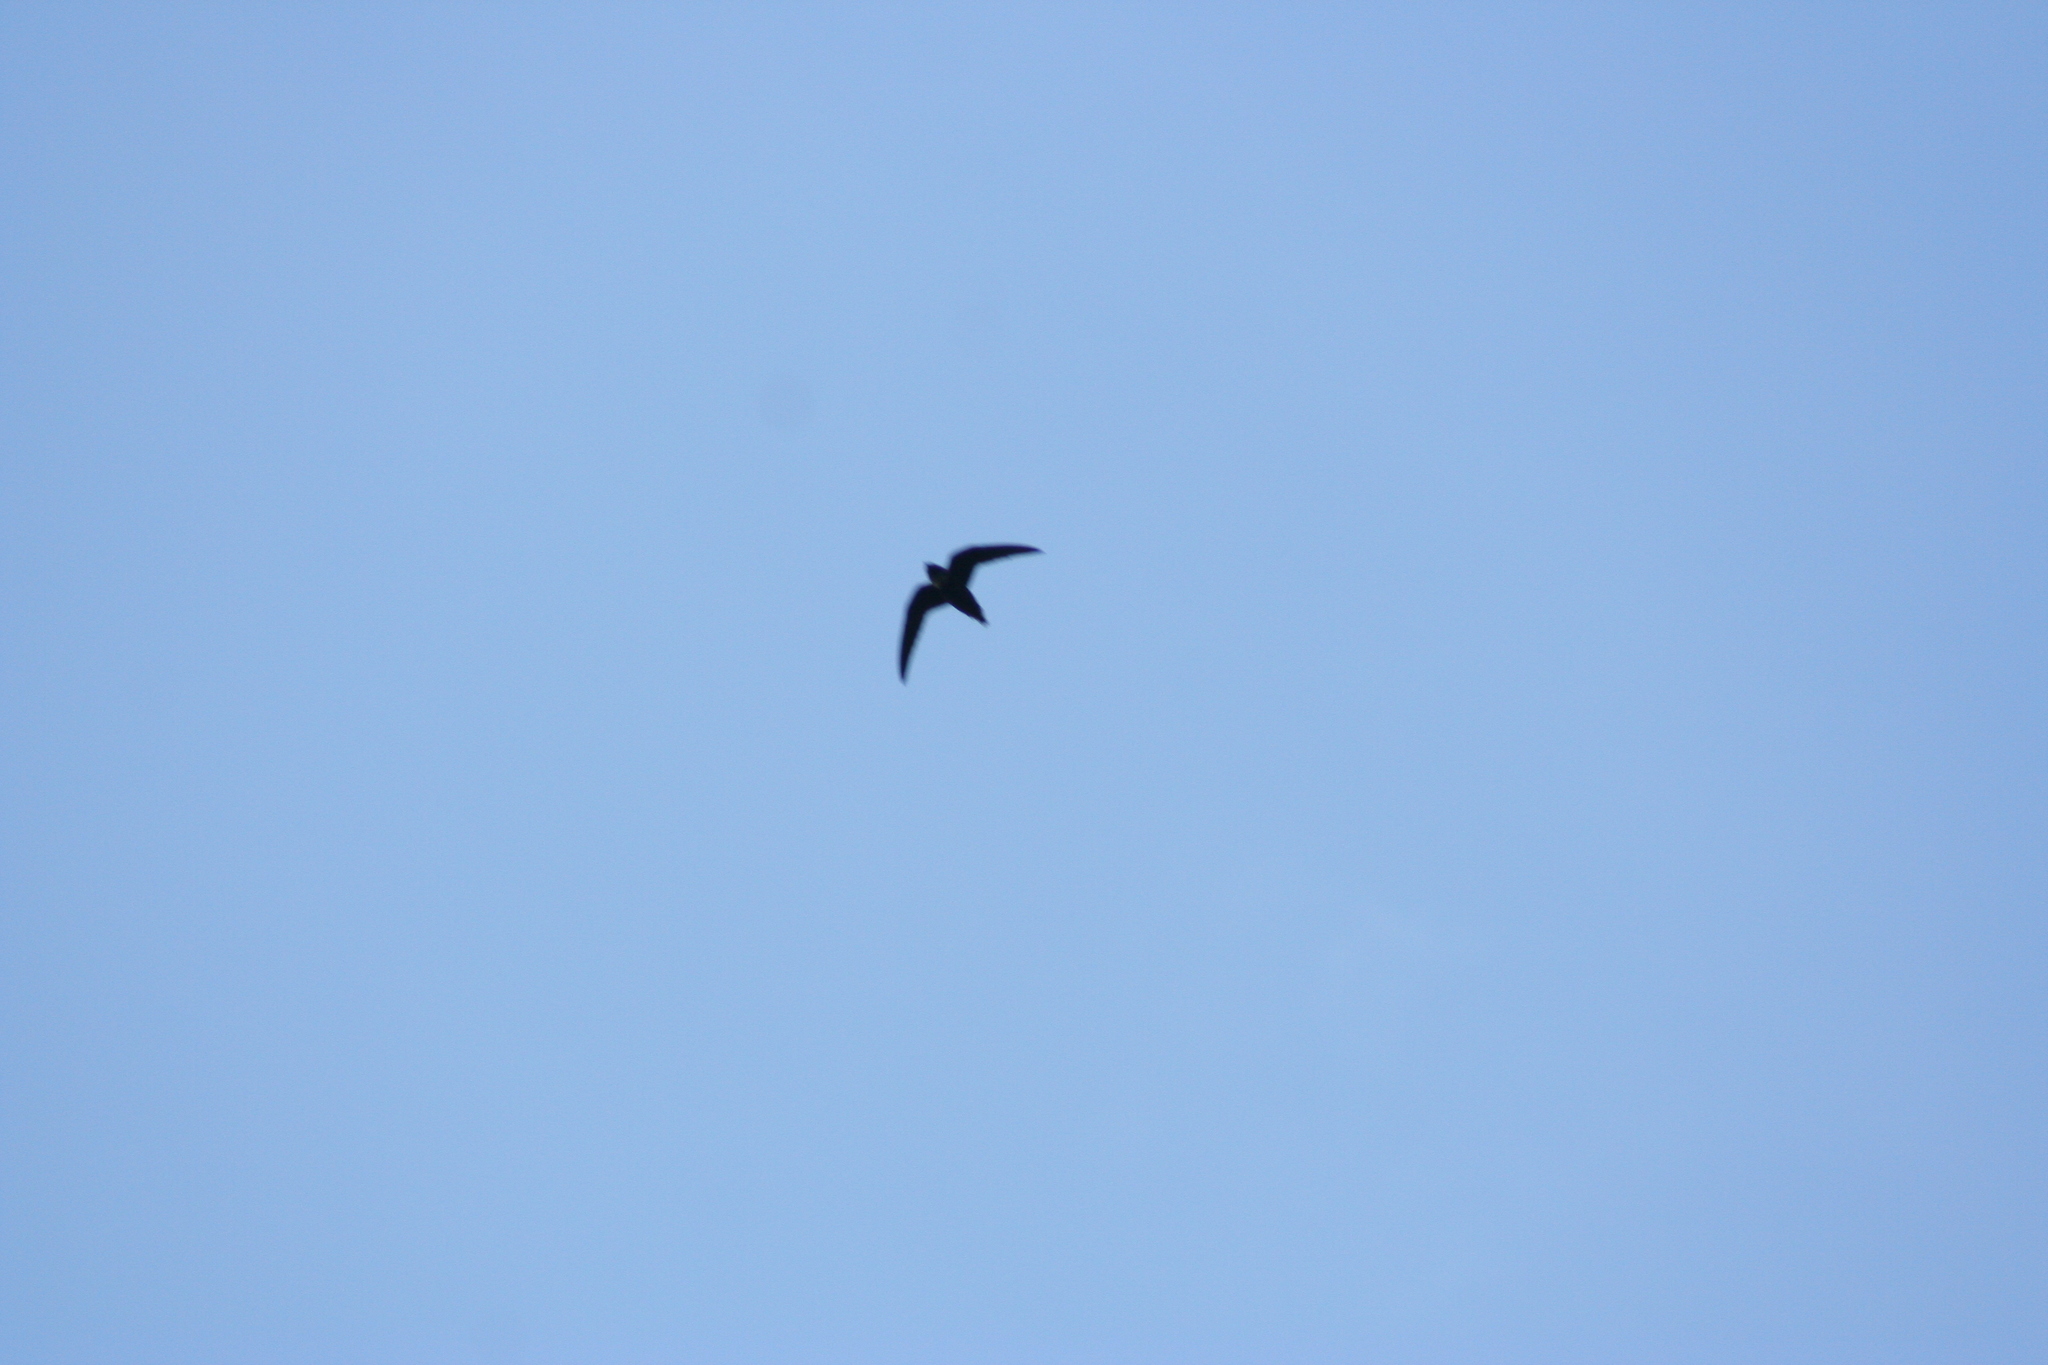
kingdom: Animalia
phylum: Chordata
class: Aves
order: Apodiformes
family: Apodidae
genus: Streptoprocne
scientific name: Streptoprocne zonaris
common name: White-collared swift
